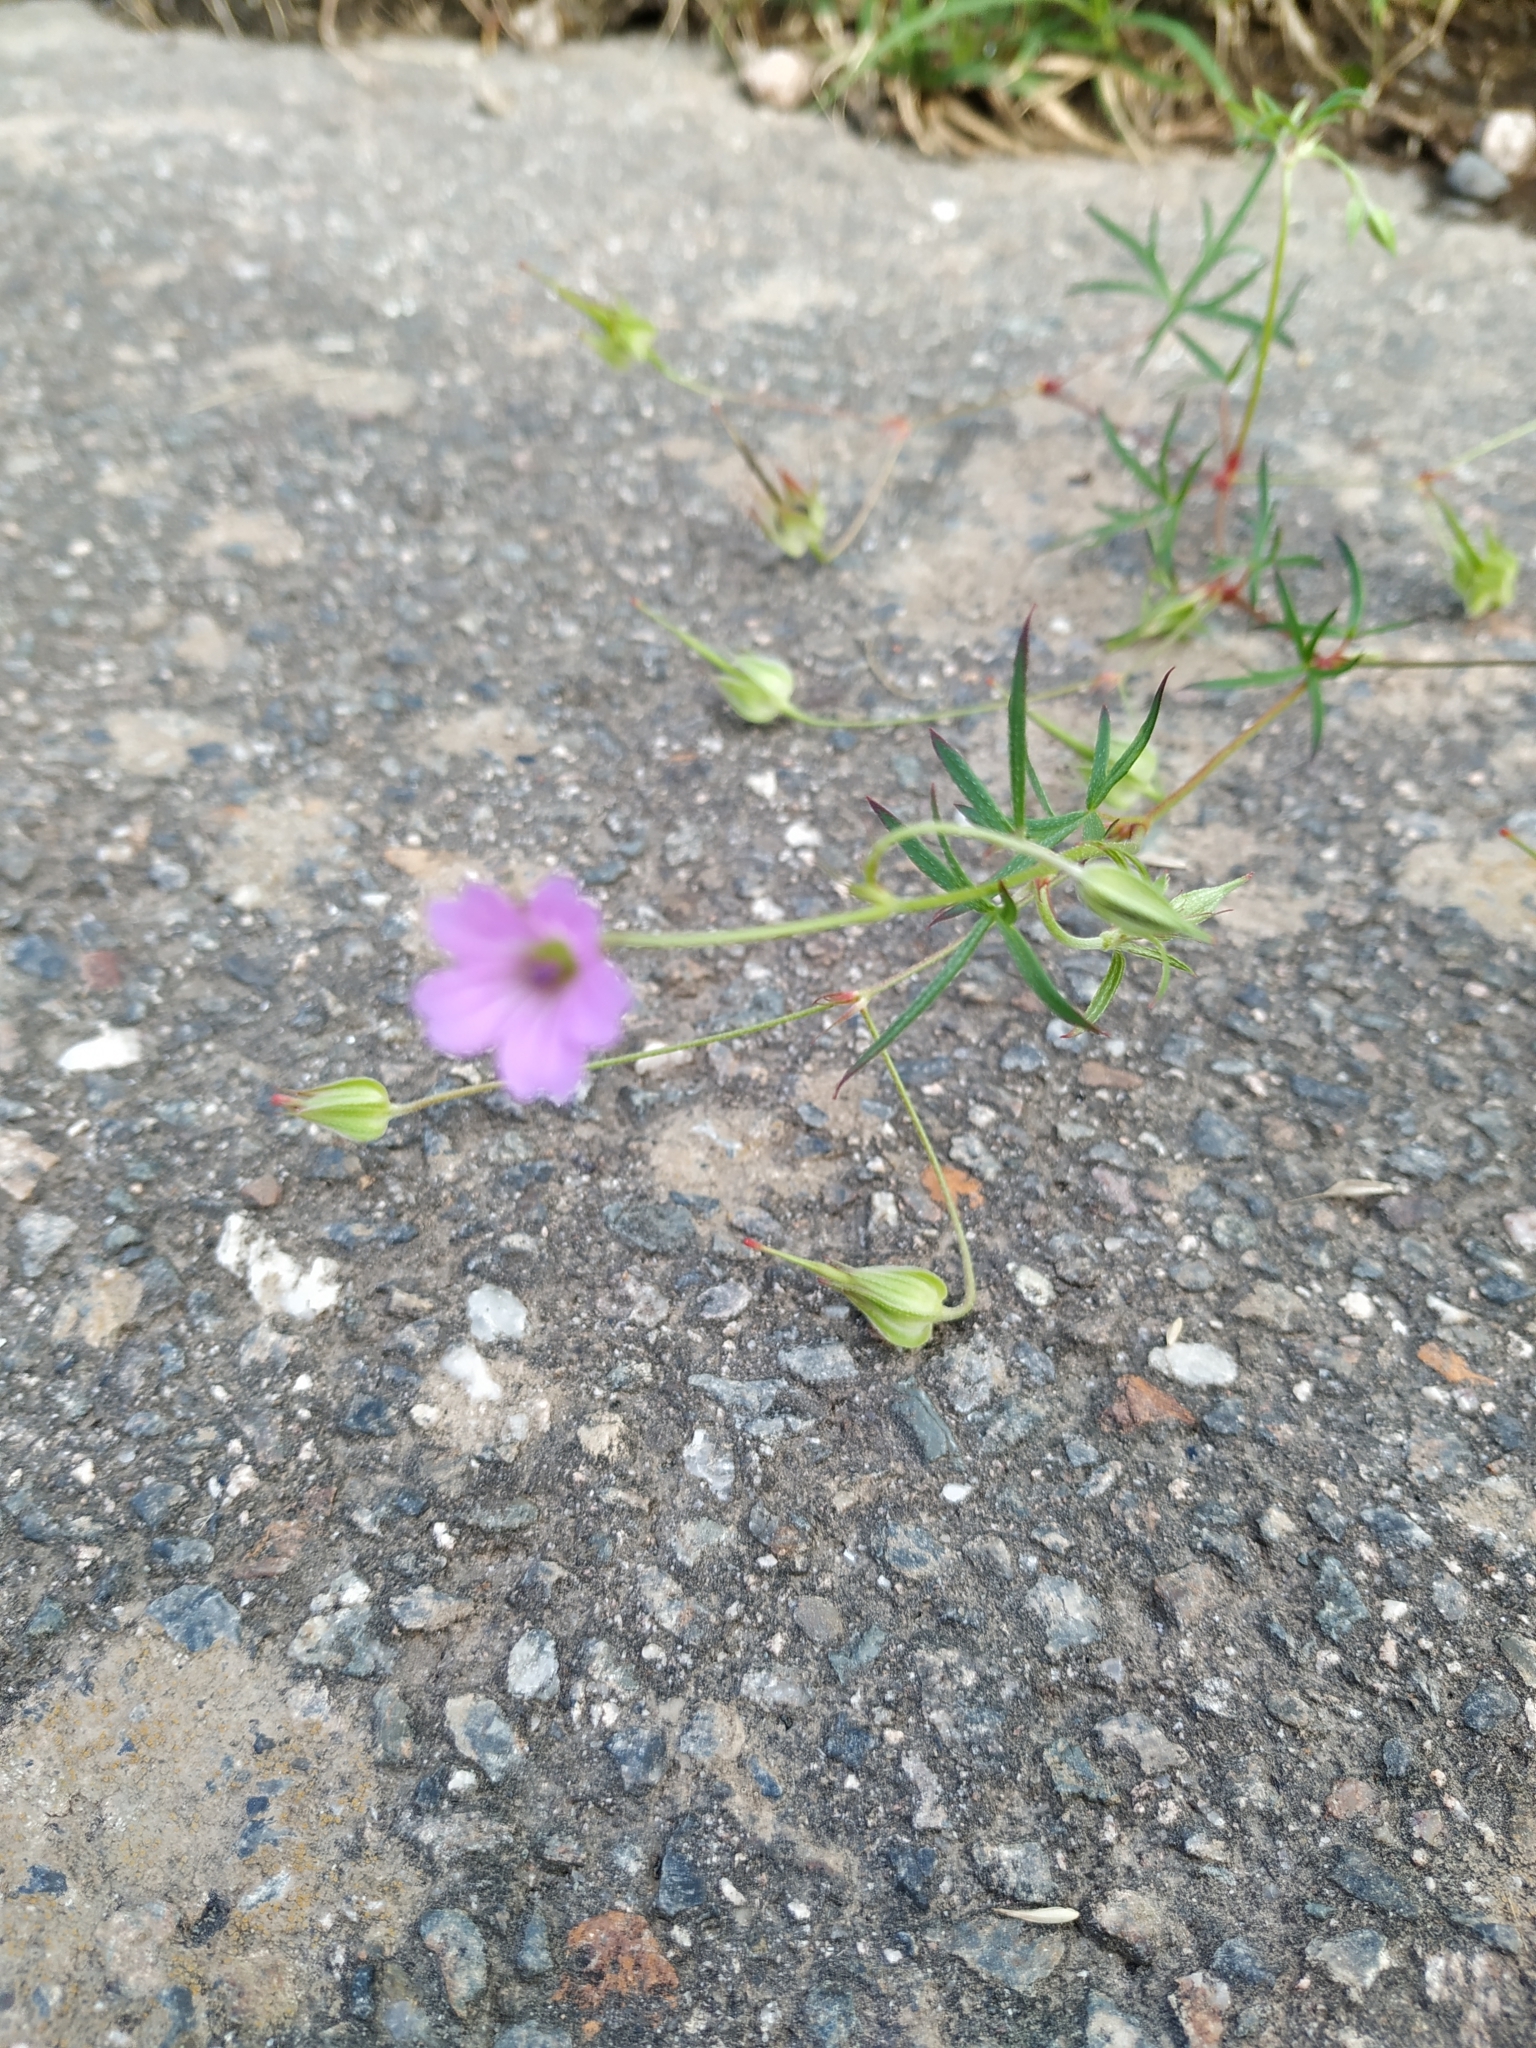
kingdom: Plantae
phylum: Tracheophyta
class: Magnoliopsida
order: Geraniales
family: Geraniaceae
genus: Geranium
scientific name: Geranium columbinum
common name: Long-stalked crane's-bill
